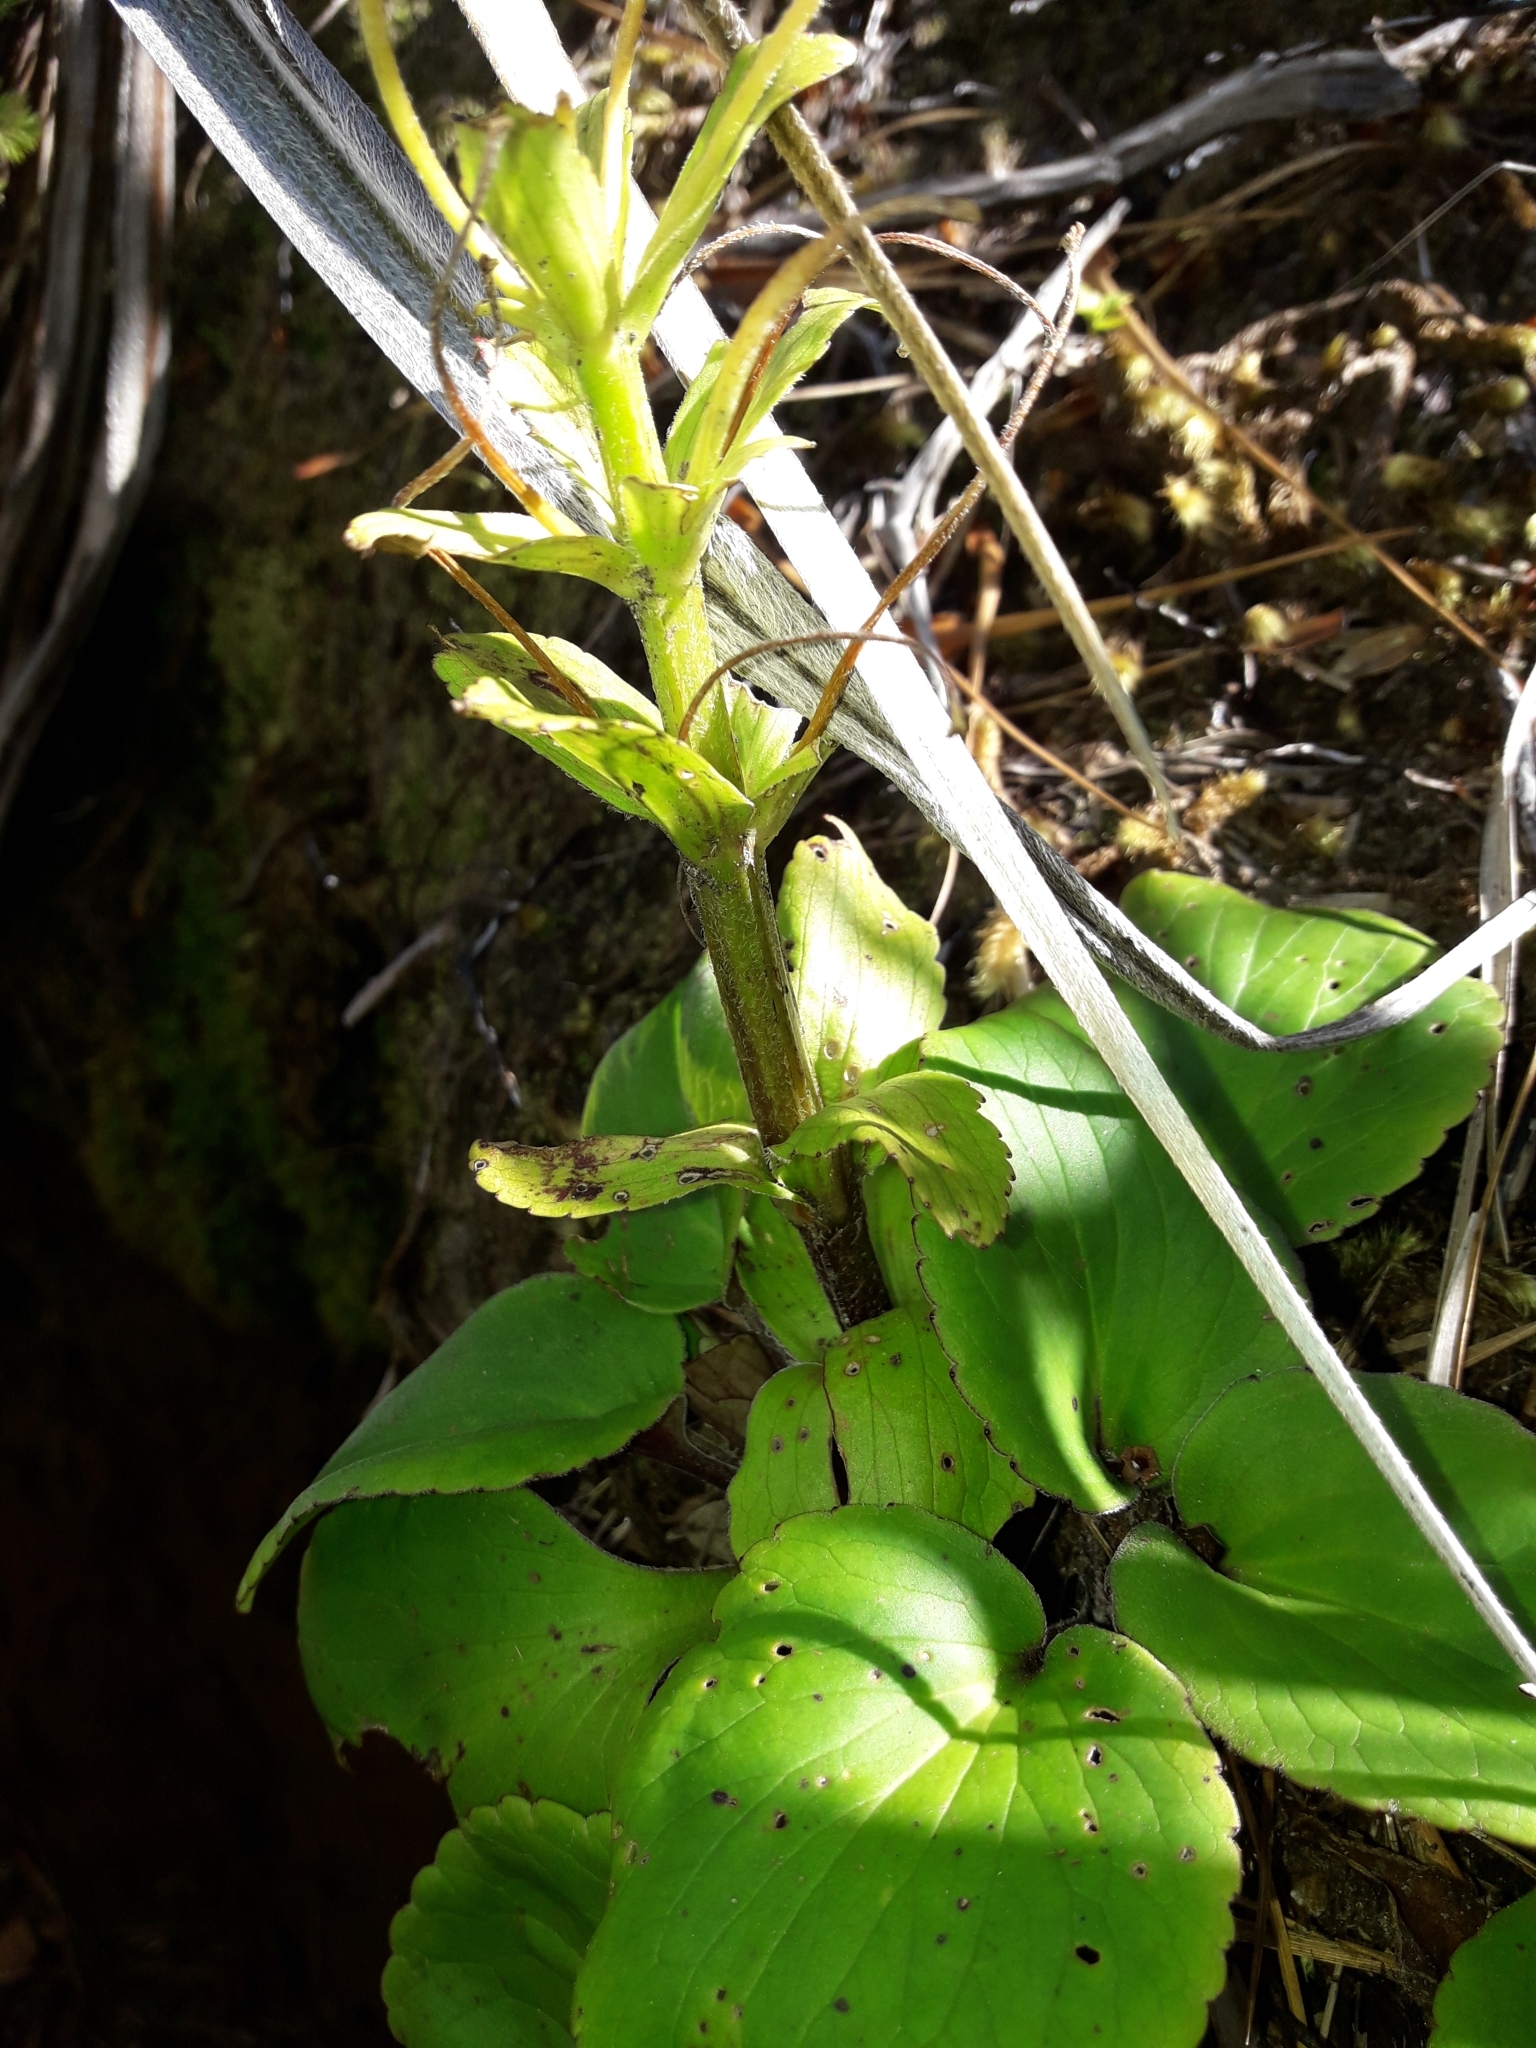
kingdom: Plantae
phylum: Tracheophyta
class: Magnoliopsida
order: Lamiales
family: Plantaginaceae
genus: Ourisia
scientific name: Ourisia calycina
